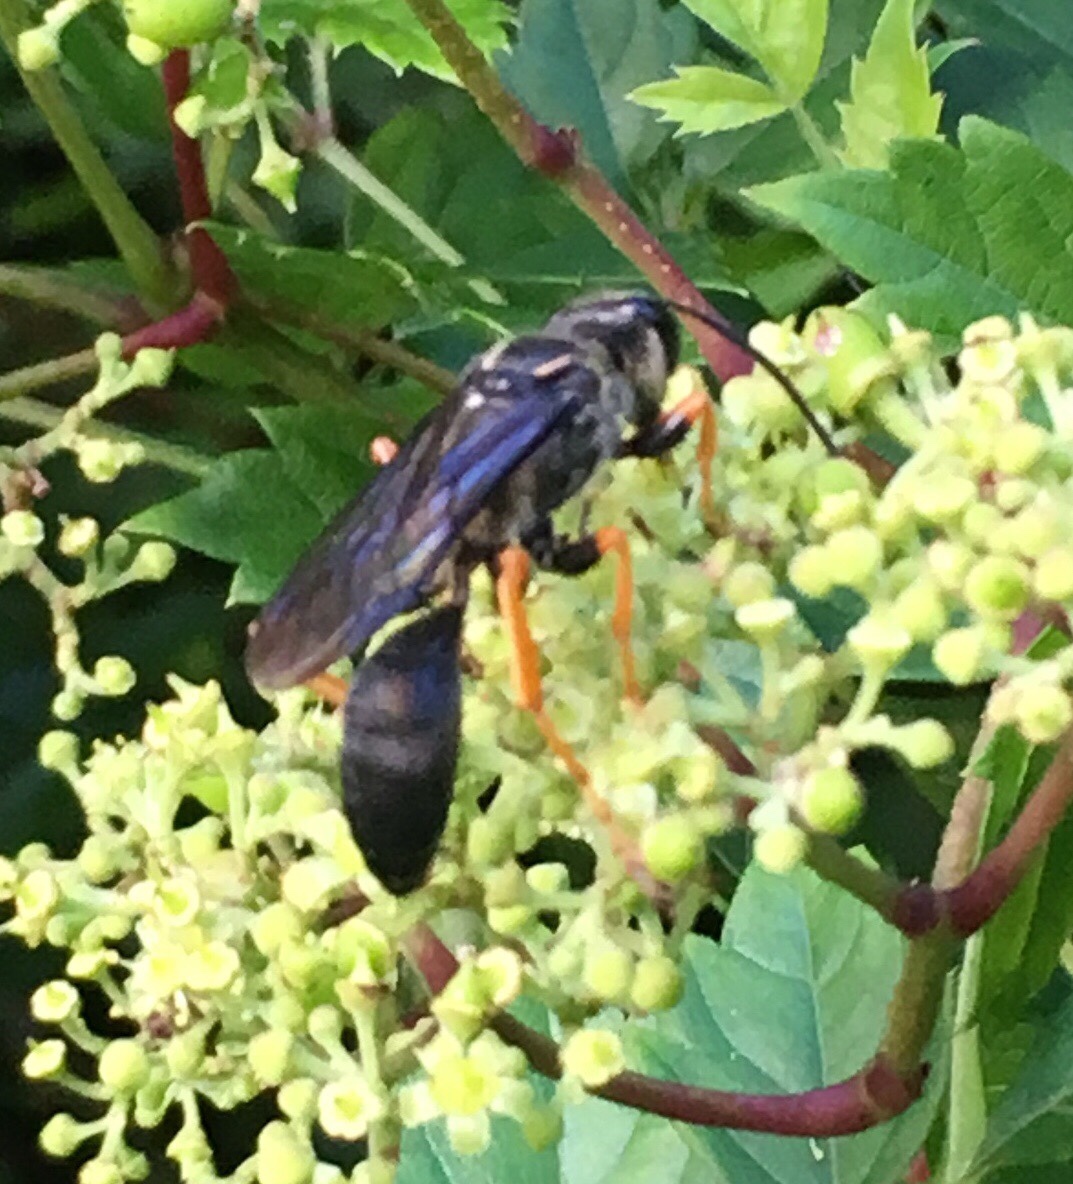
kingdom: Animalia
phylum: Arthropoda
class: Insecta
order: Hymenoptera
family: Sphecidae
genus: Sphex
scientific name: Sphex nudus
